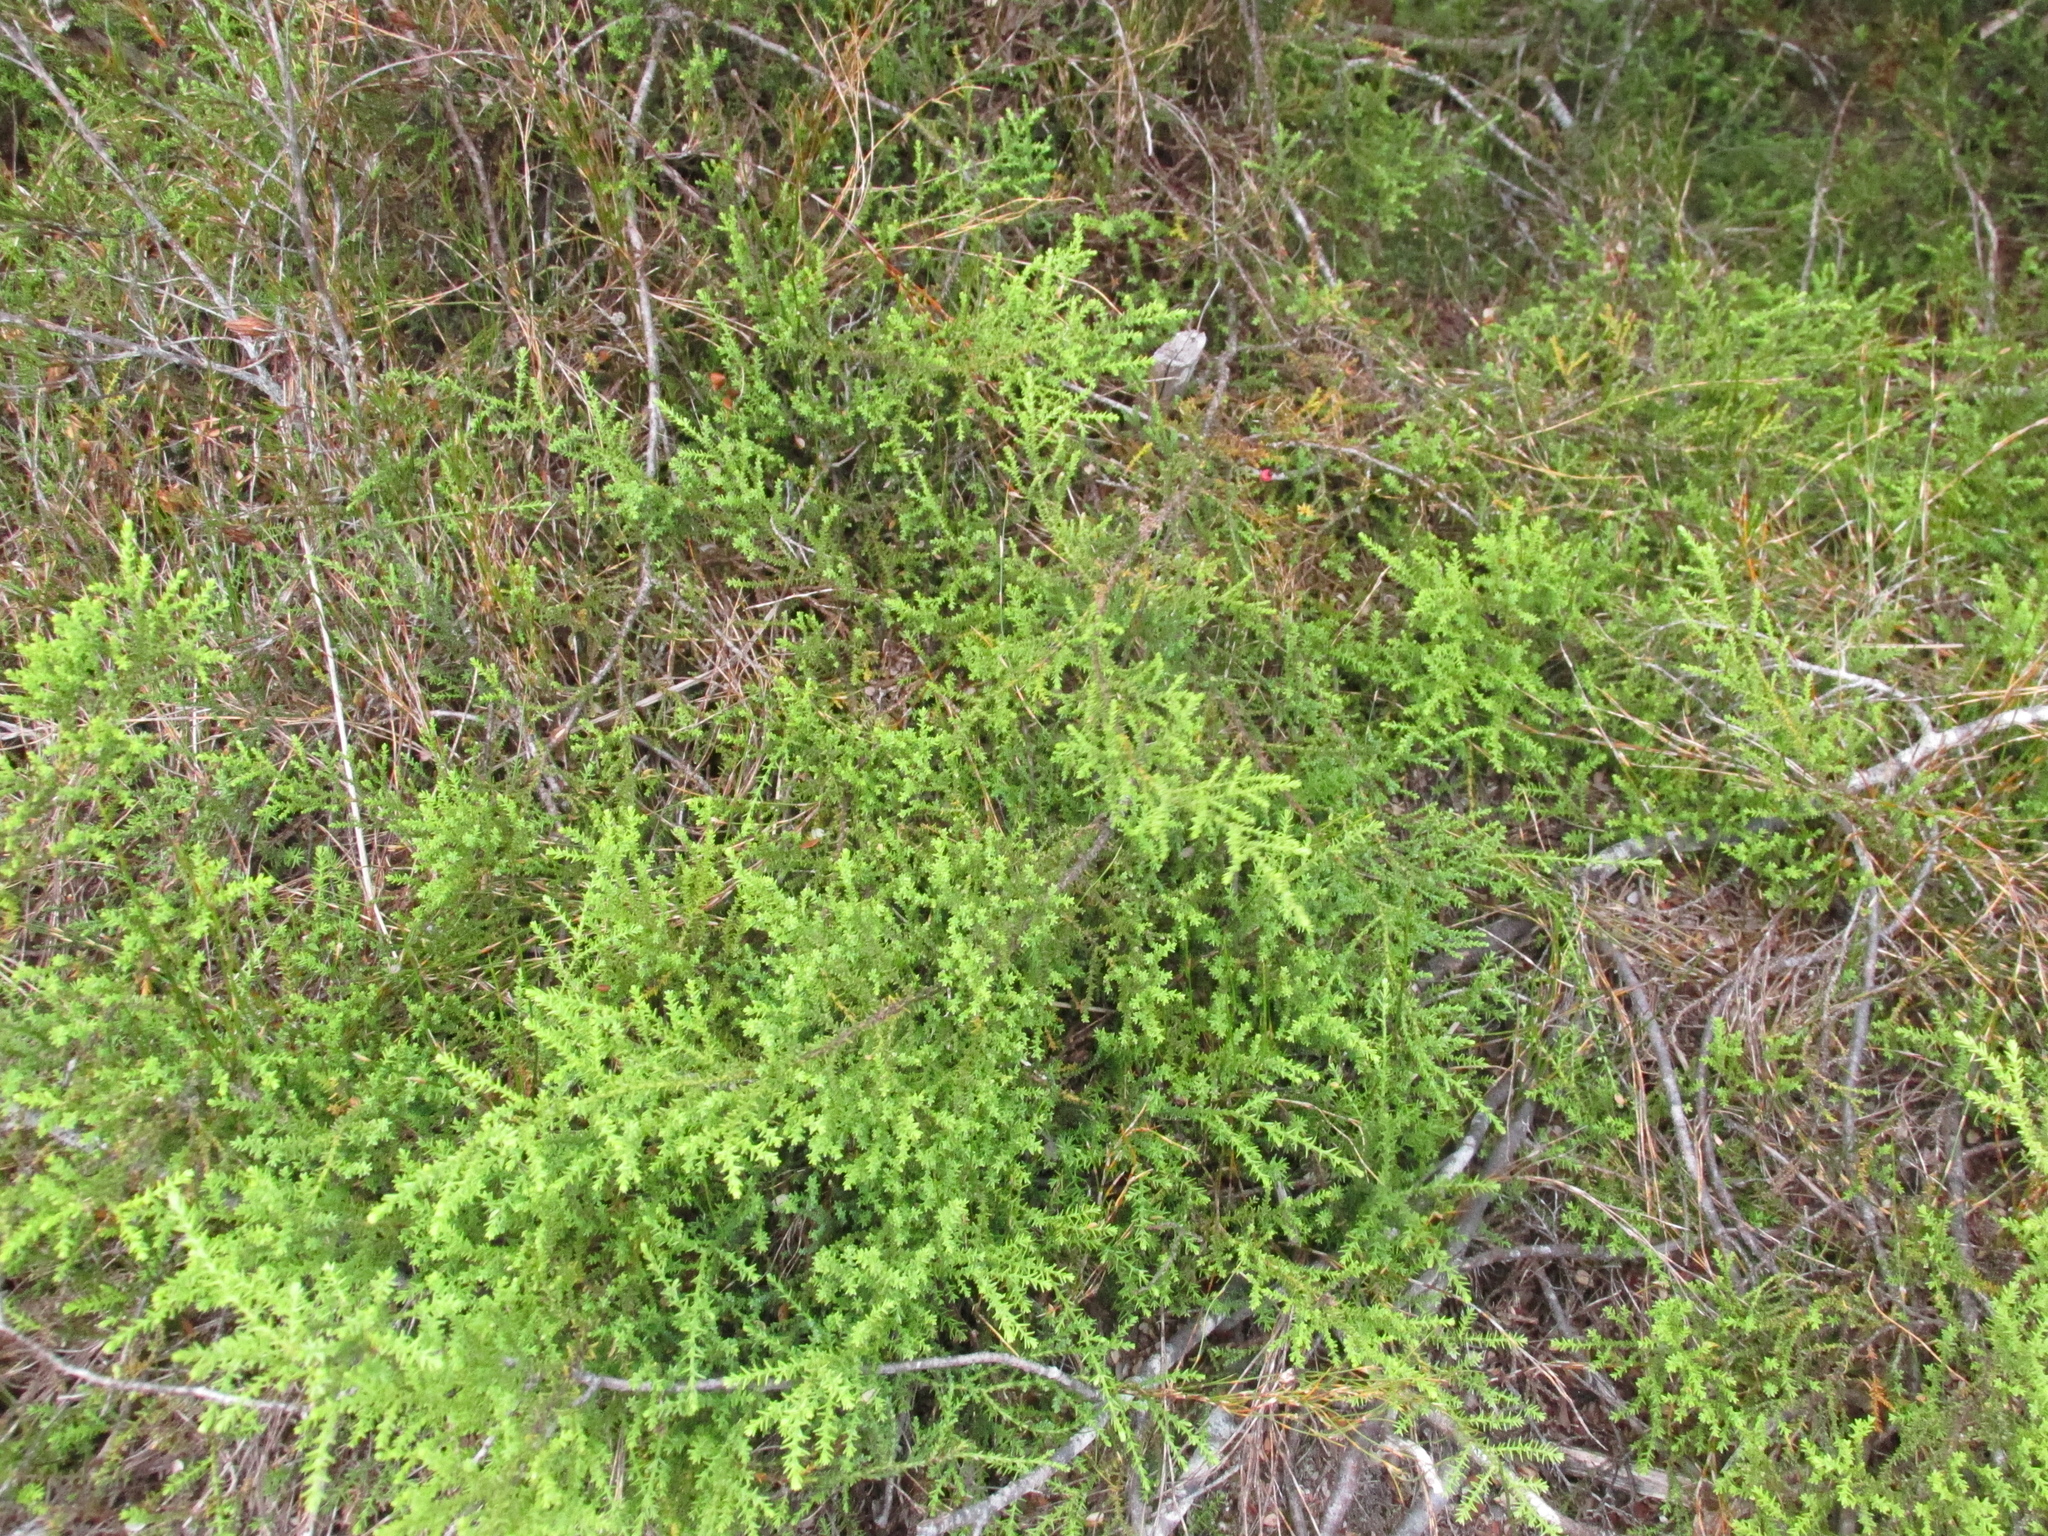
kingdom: Plantae
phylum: Tracheophyta
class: Pinopsida
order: Pinales
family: Podocarpaceae
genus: Lepidothamnus
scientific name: Lepidothamnus laxifolius
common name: Pygmy pine
